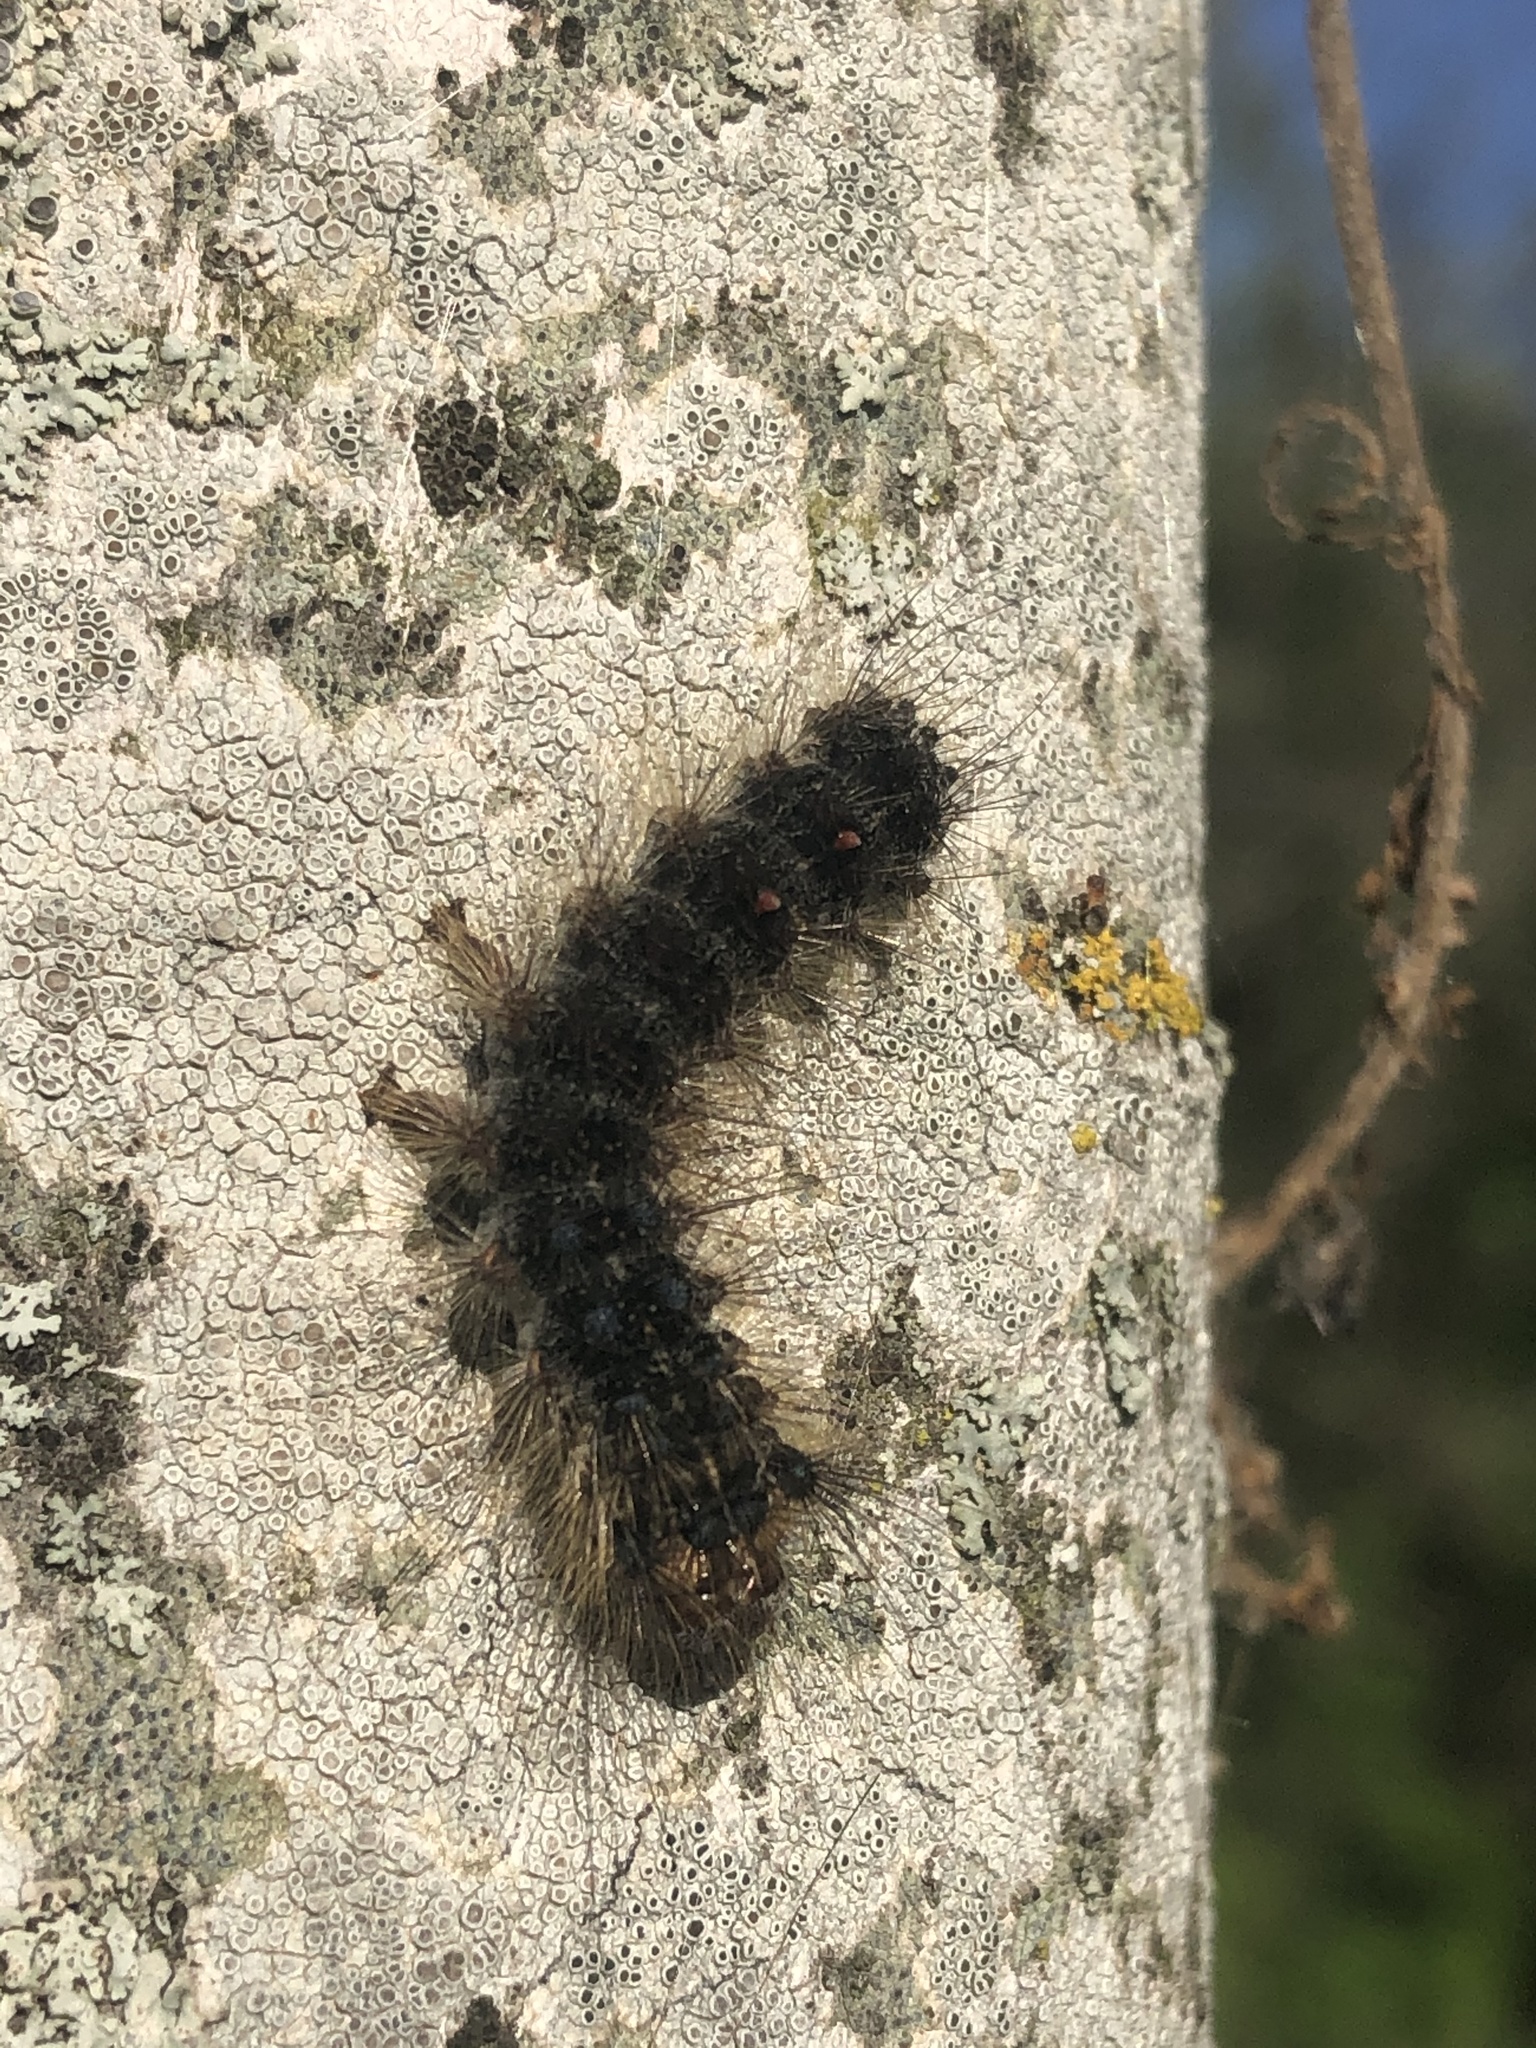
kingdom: Animalia
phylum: Arthropoda
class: Insecta
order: Lepidoptera
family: Erebidae
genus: Lymantria
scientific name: Lymantria dispar
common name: Gypsy moth
